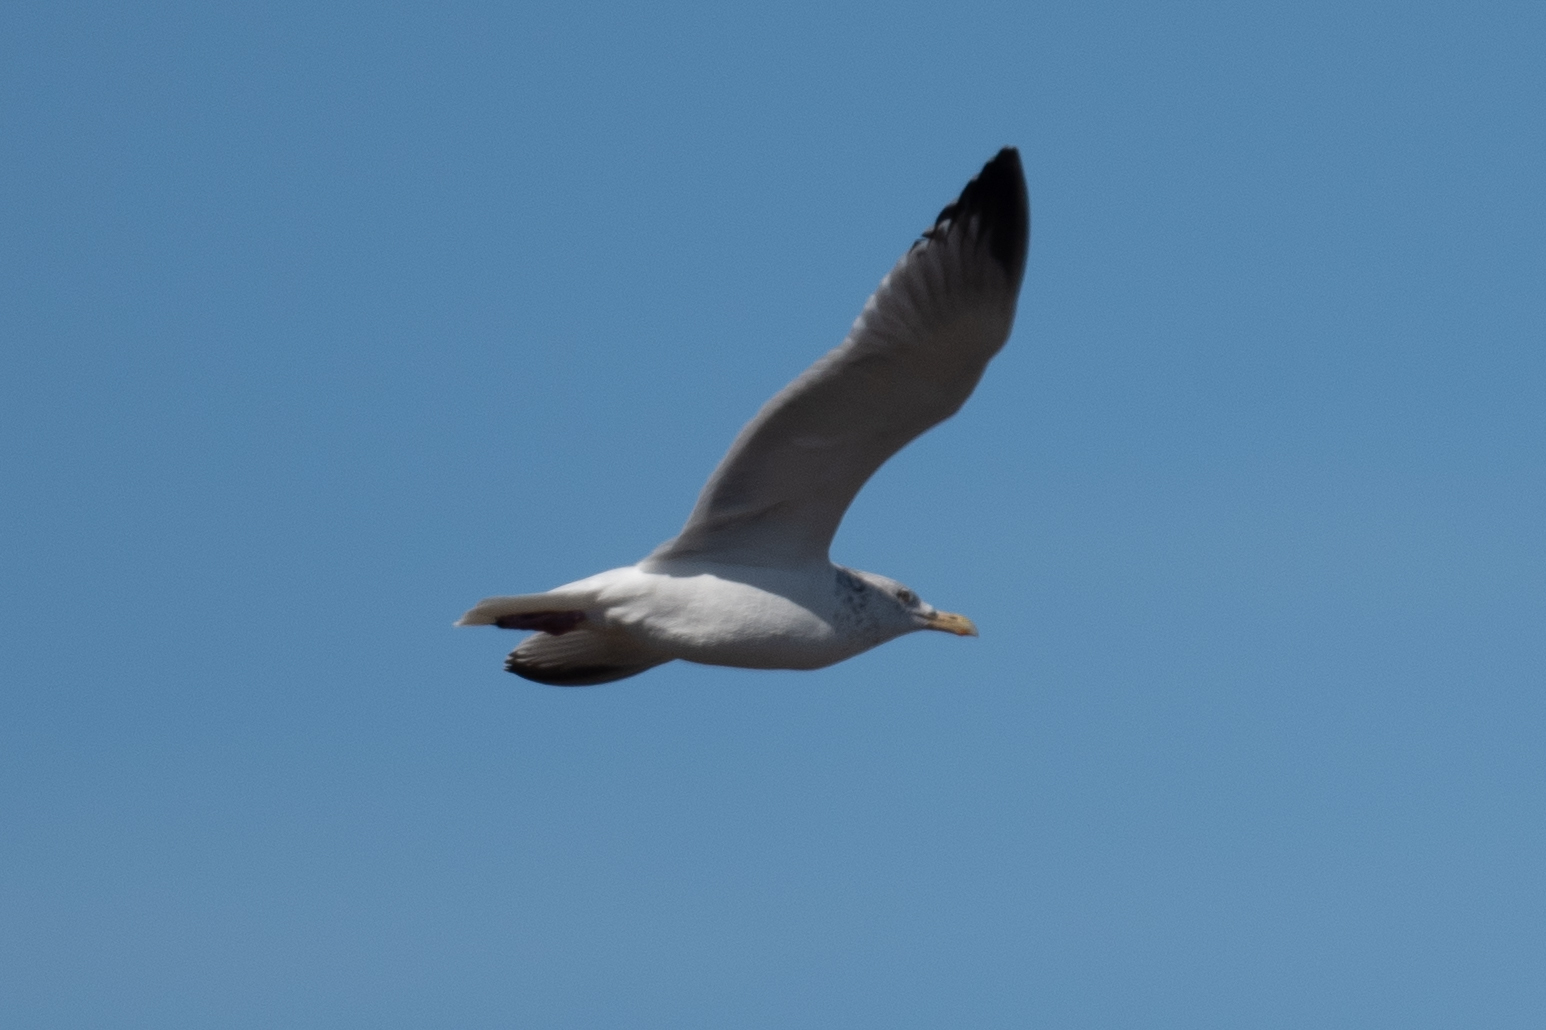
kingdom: Animalia
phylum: Chordata
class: Aves
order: Charadriiformes
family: Laridae
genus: Larus
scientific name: Larus argentatus
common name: Herring gull
